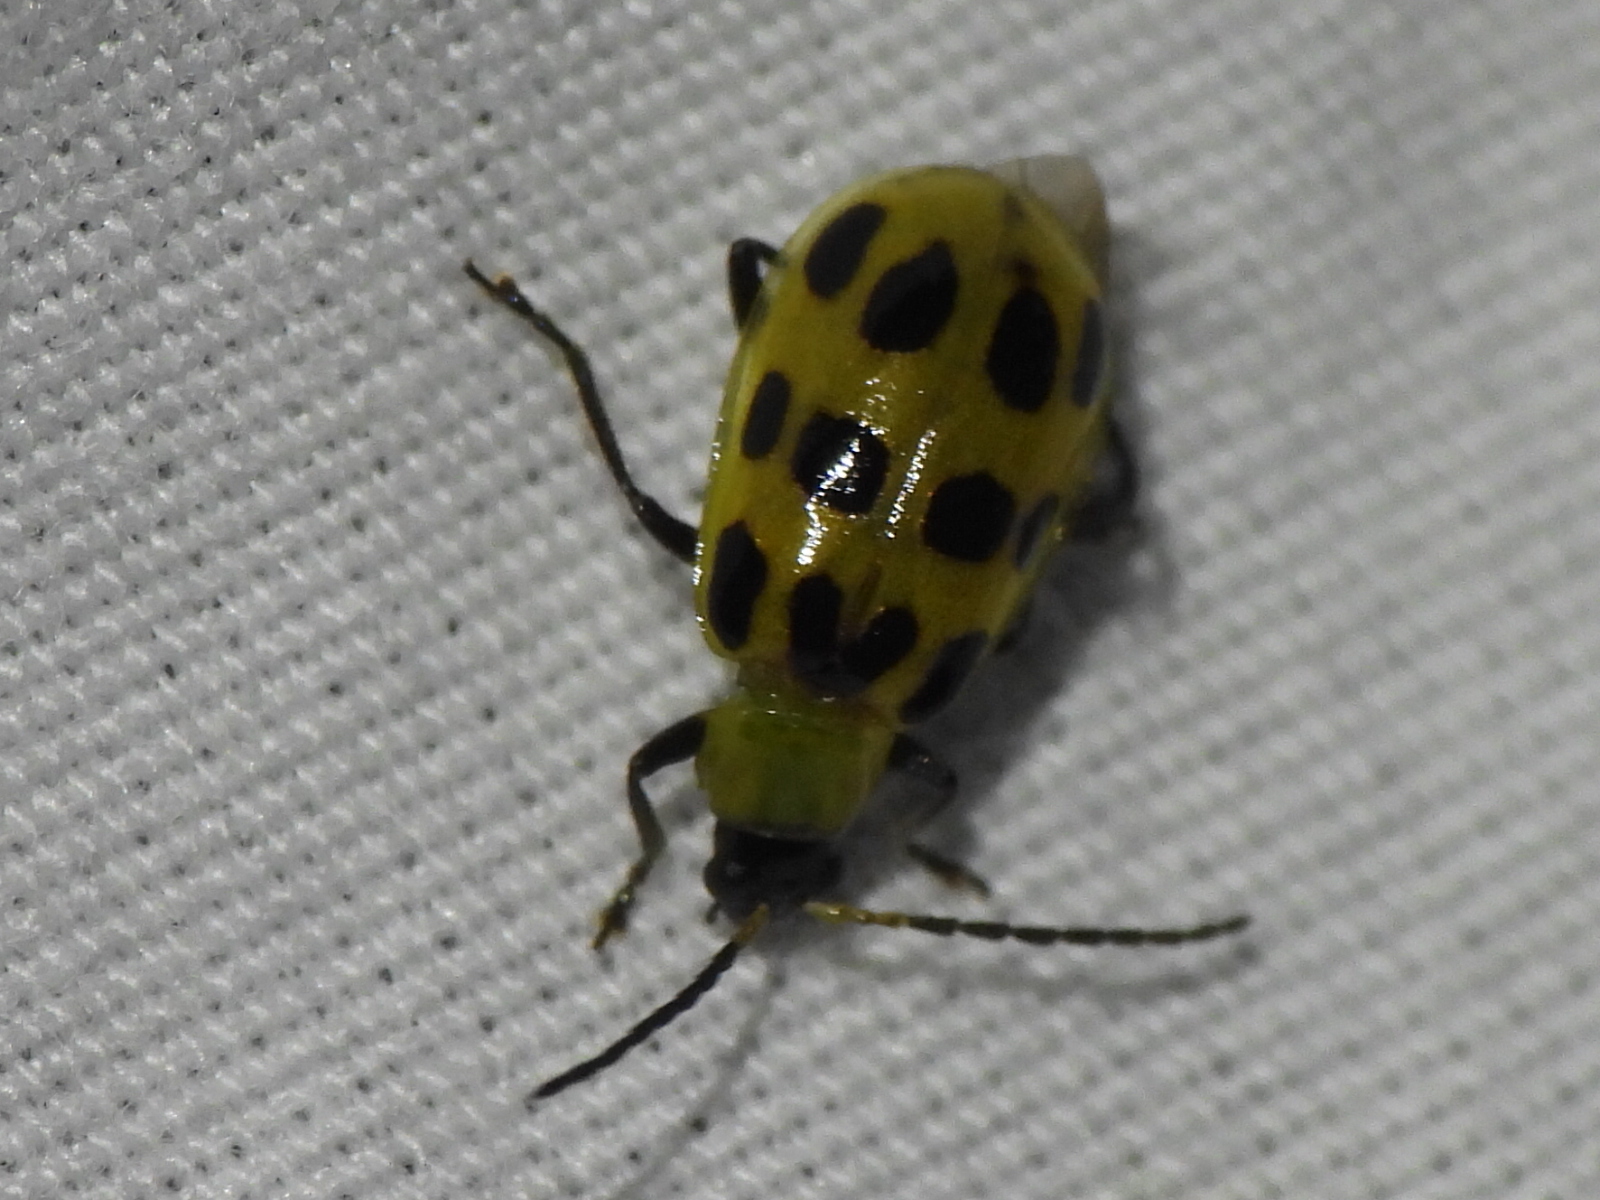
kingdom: Animalia
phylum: Arthropoda
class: Insecta
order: Coleoptera
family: Chrysomelidae
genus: Diabrotica
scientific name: Diabrotica undecimpunctata
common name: Spotted cucumber beetle
